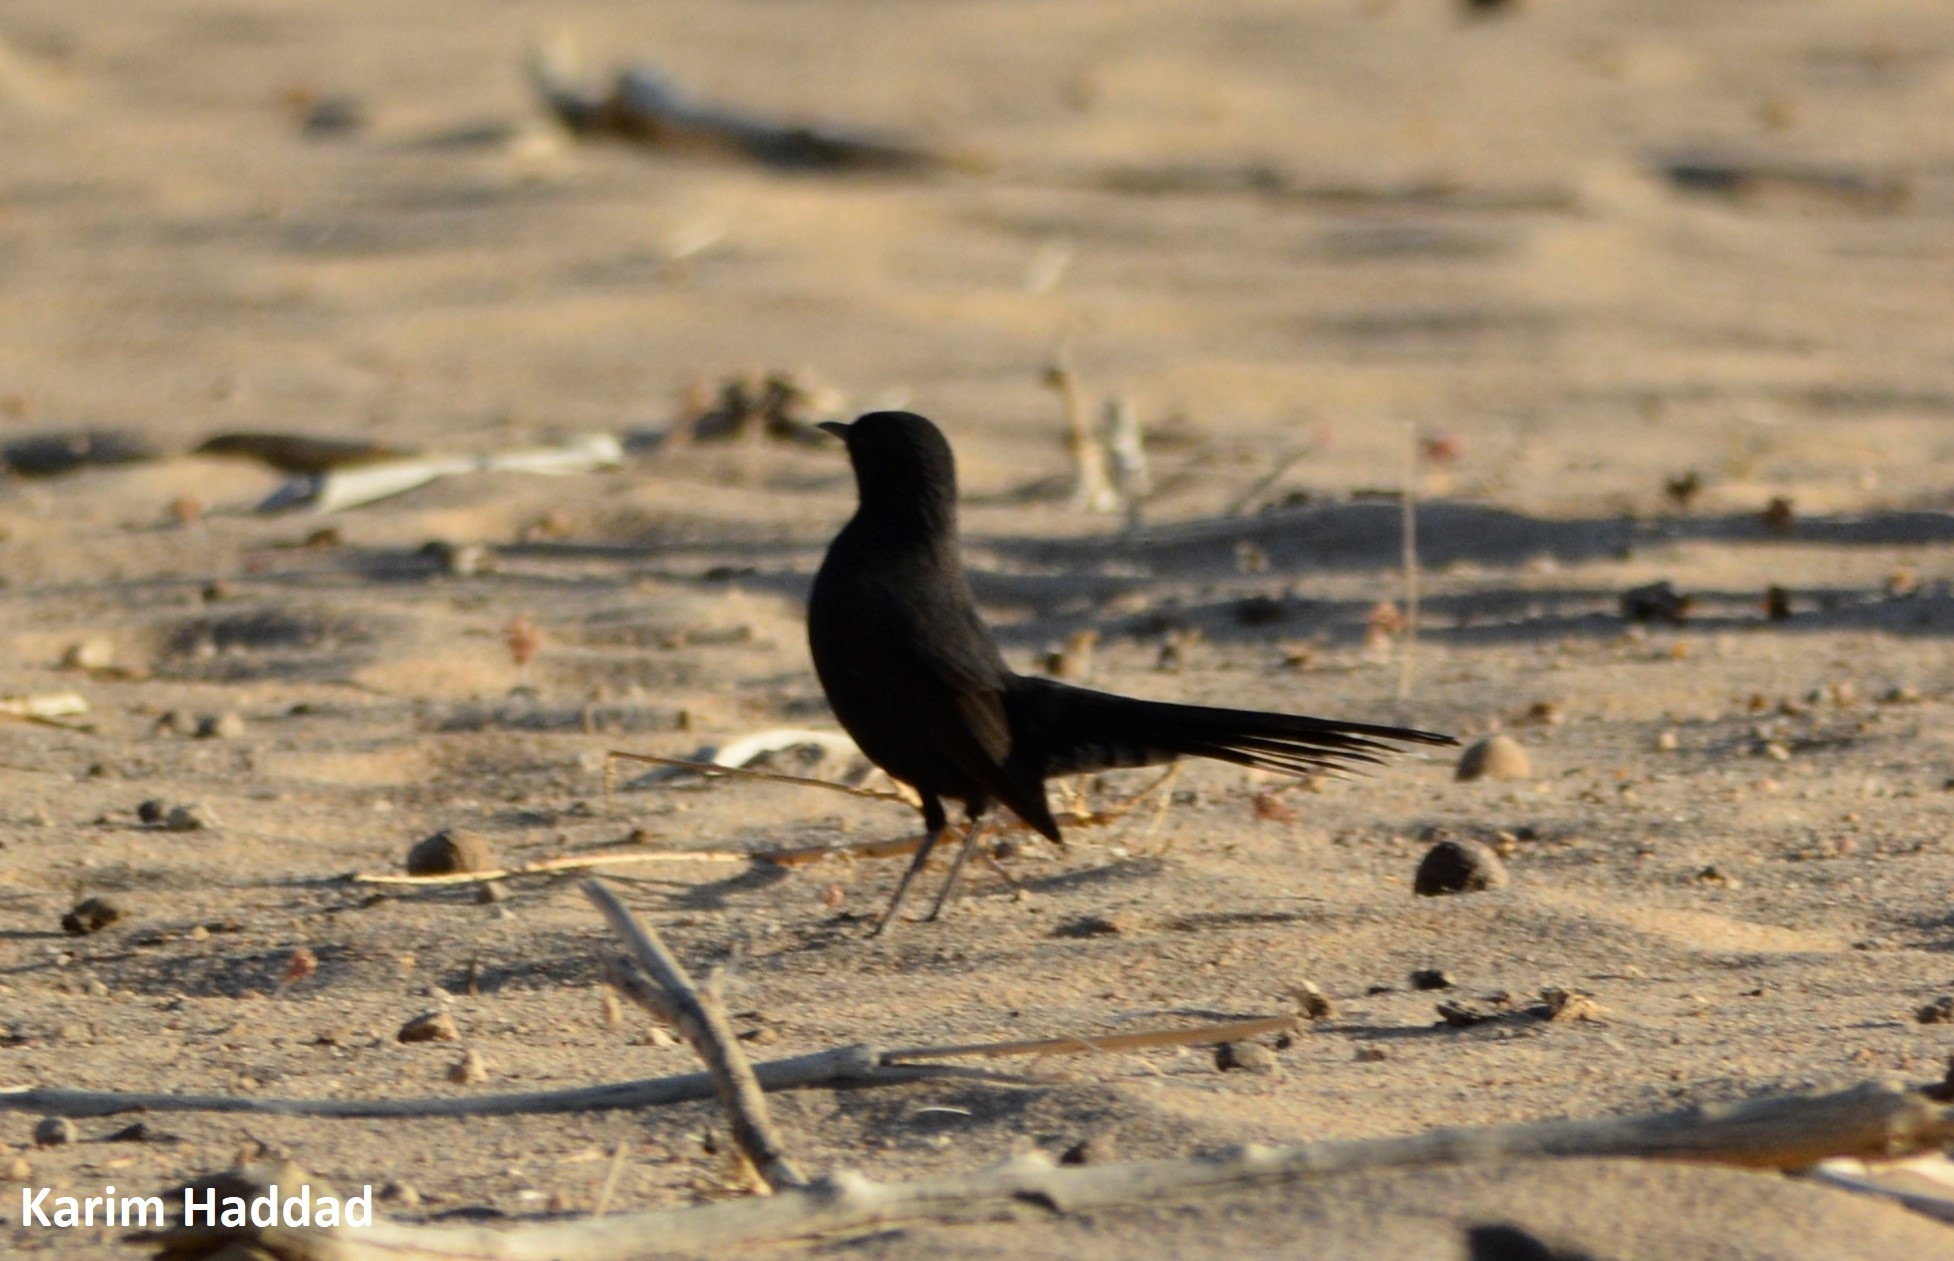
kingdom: Animalia
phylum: Chordata
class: Aves
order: Passeriformes
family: Muscicapidae
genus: Cercotrichas
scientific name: Cercotrichas podobe
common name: Black scrub robin
